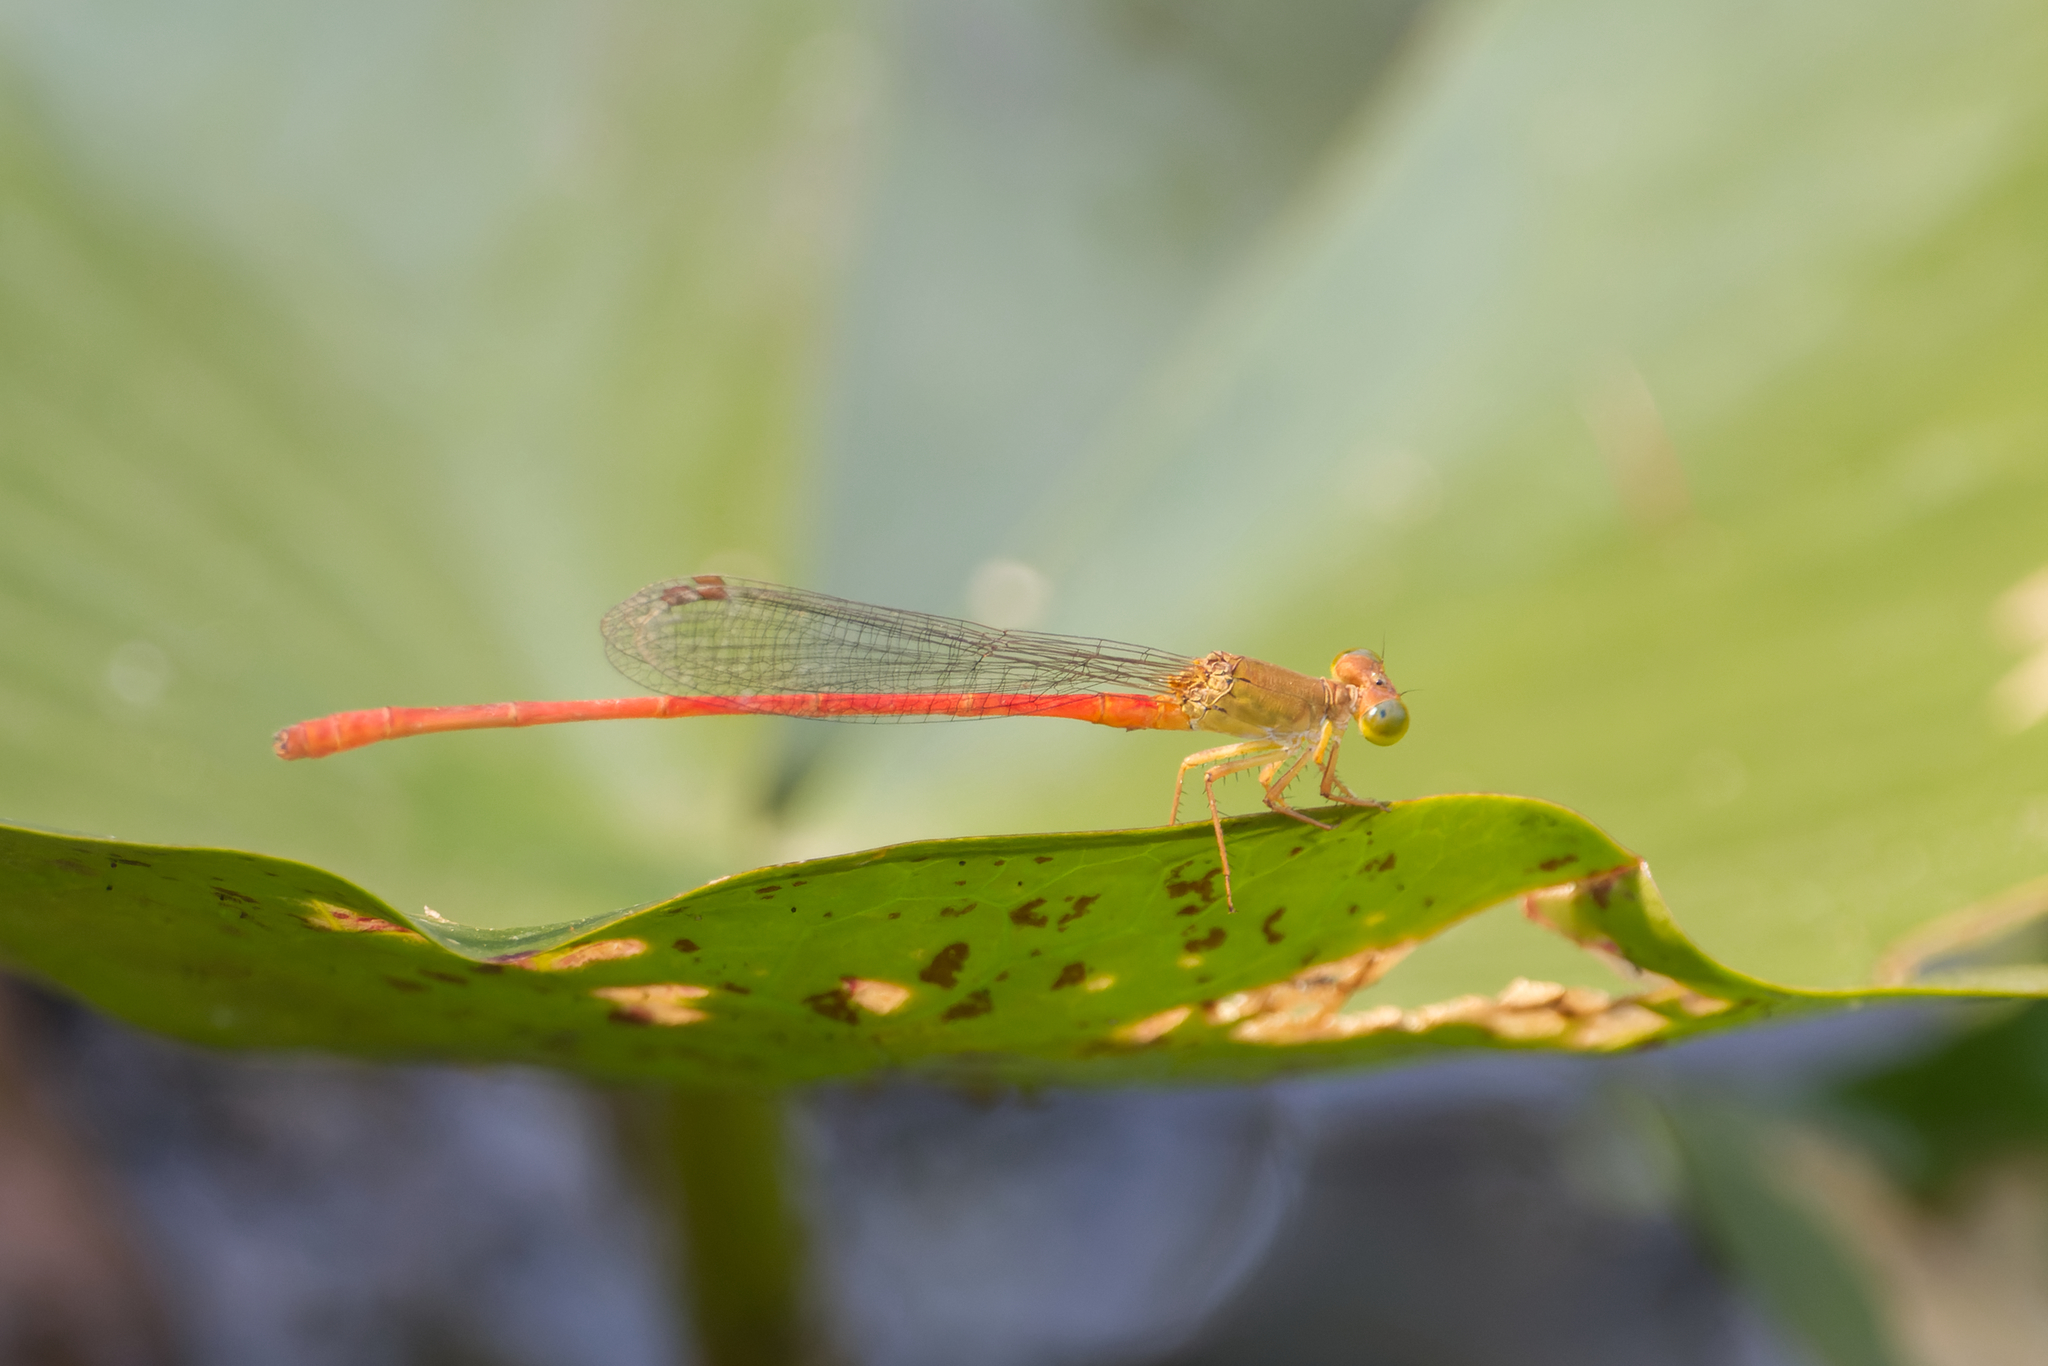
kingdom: Animalia
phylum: Arthropoda
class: Insecta
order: Odonata
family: Coenagrionidae
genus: Ceriagrion
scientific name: Ceriagrion aeruginosum
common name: Redtail
